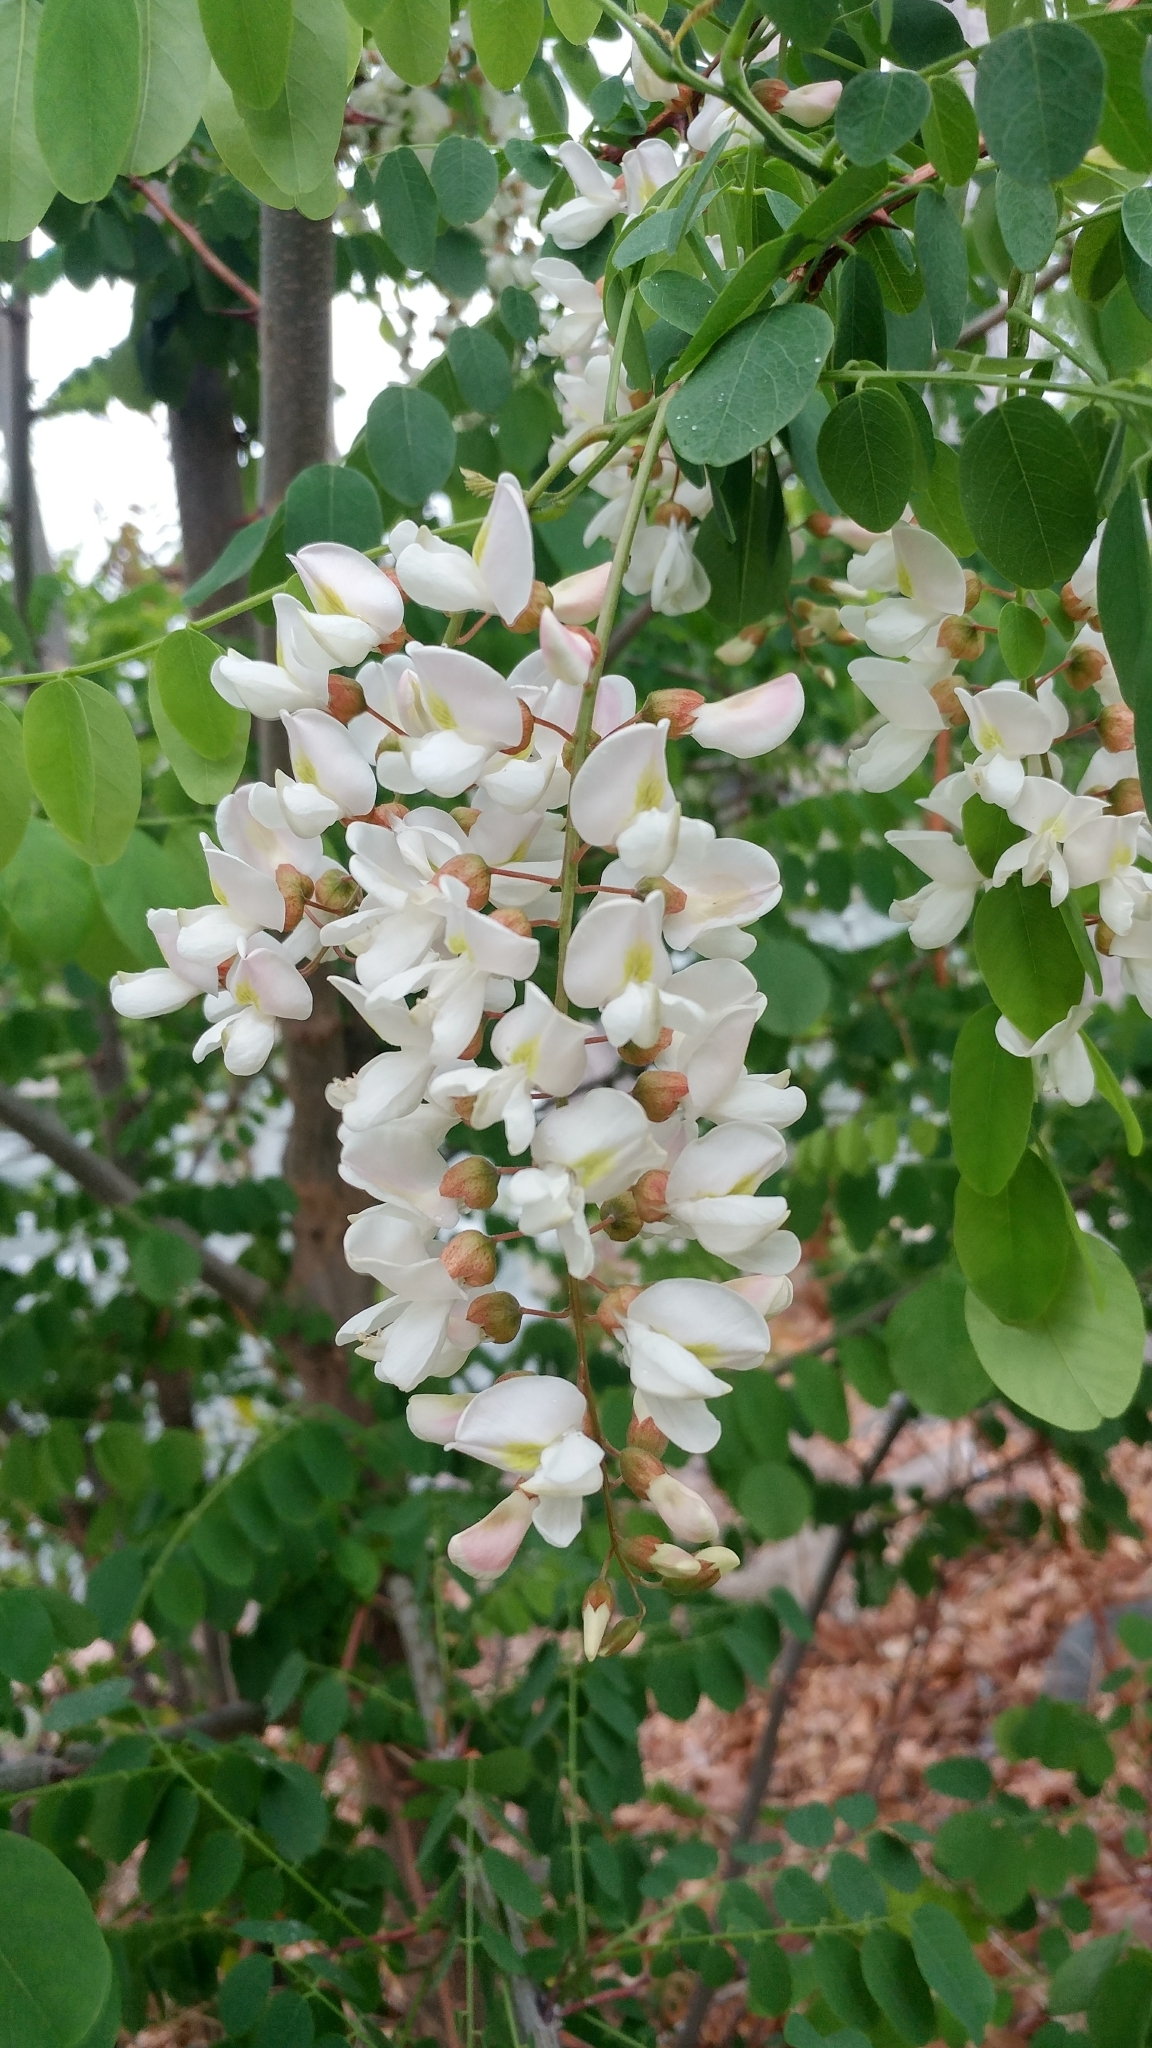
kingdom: Plantae
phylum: Tracheophyta
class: Magnoliopsida
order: Fabales
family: Fabaceae
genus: Robinia
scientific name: Robinia pseudoacacia
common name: Black locust
